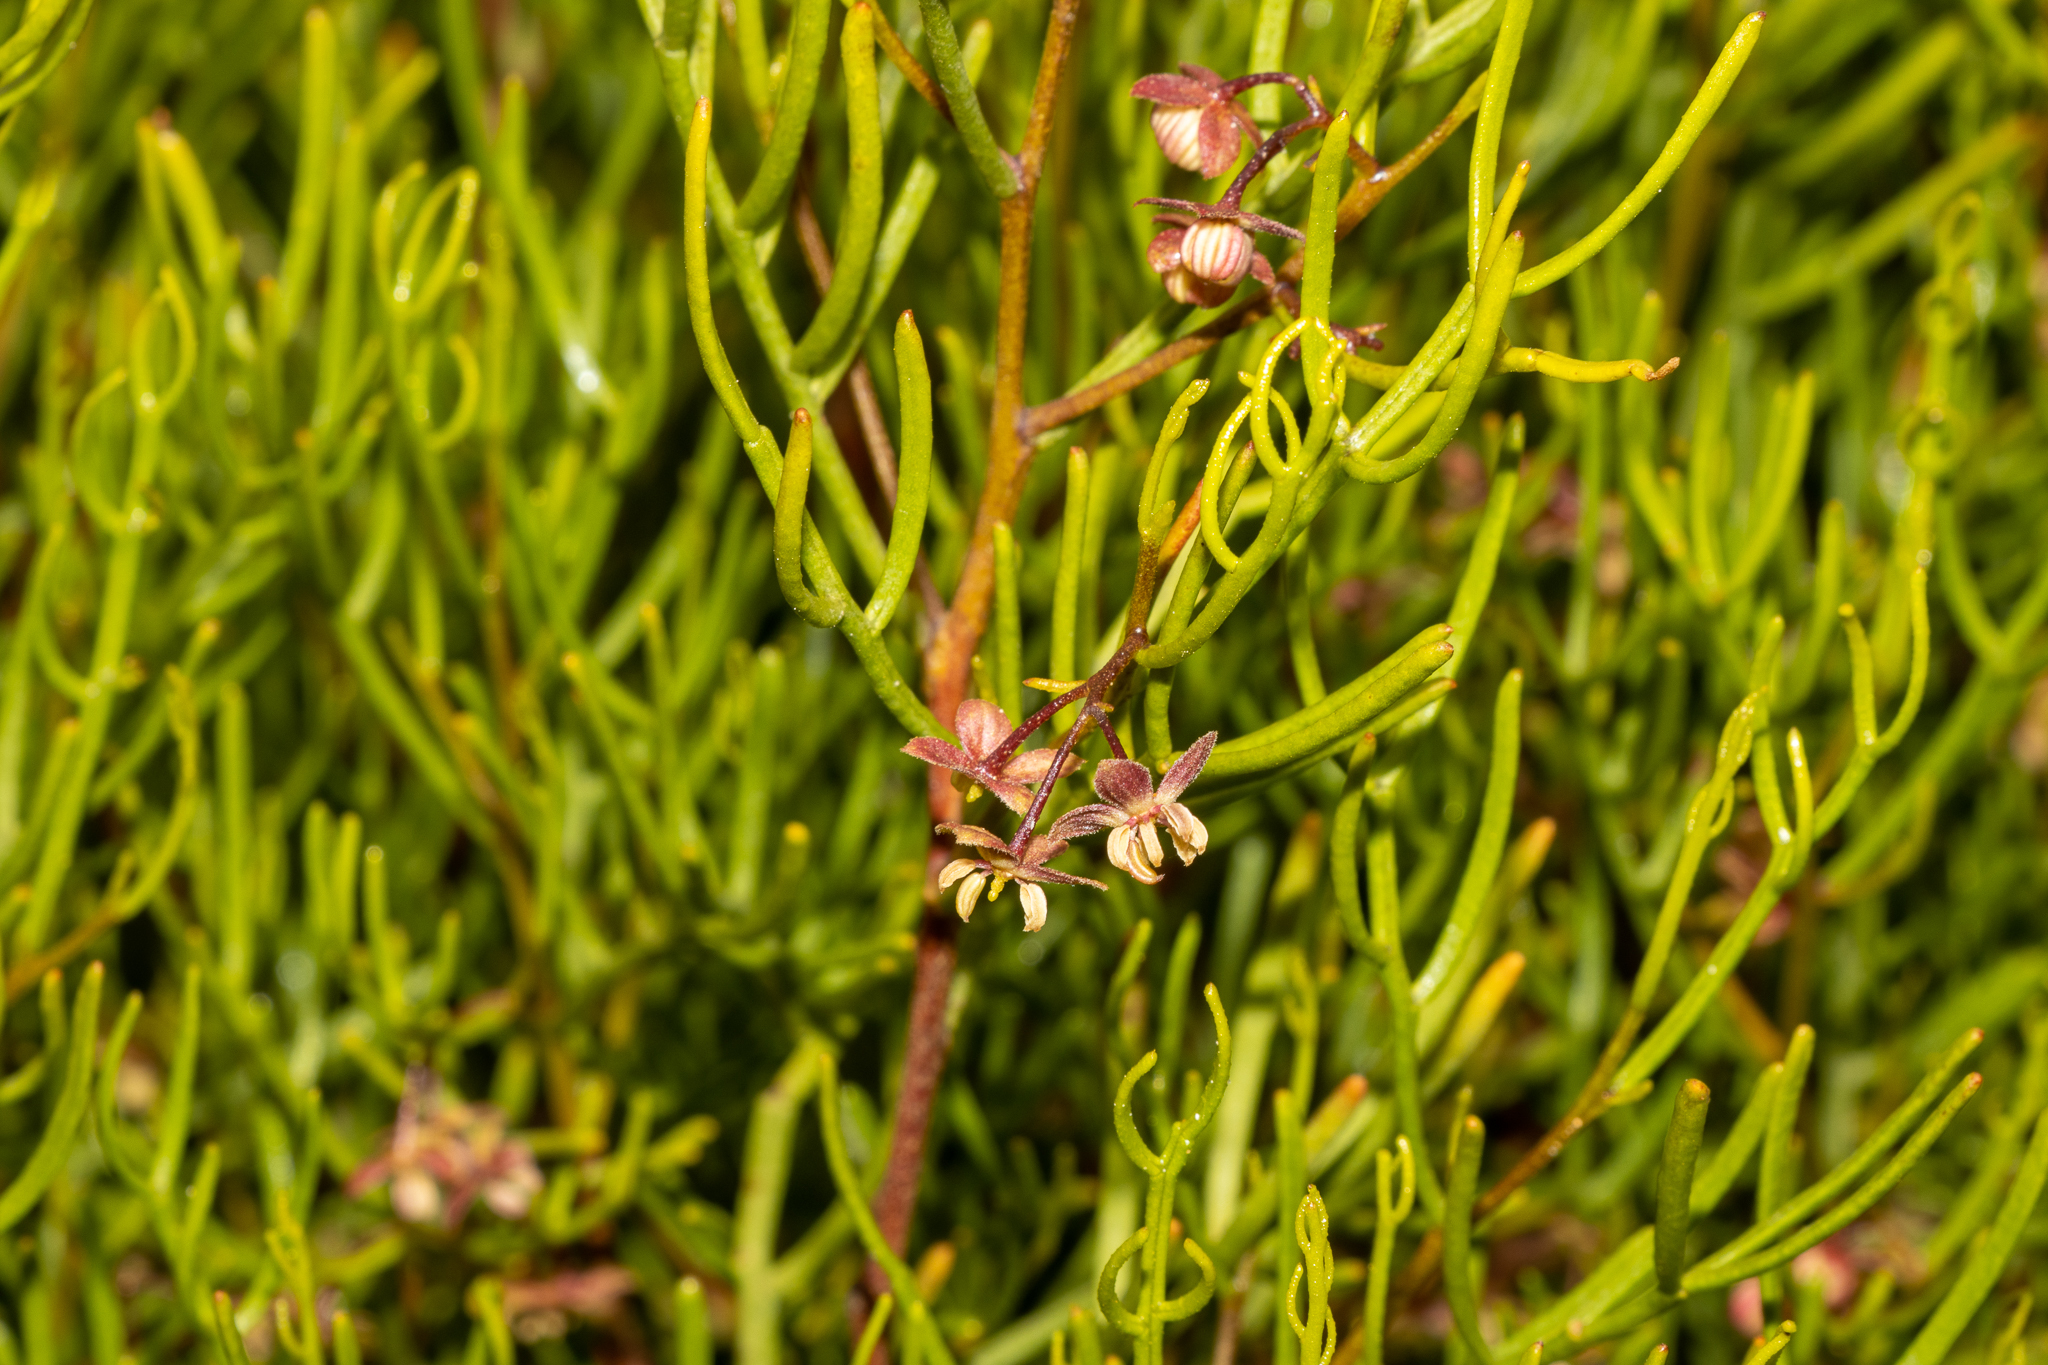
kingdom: Plantae
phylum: Tracheophyta
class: Magnoliopsida
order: Sapindales
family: Sapindaceae
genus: Dodonaea
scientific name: Dodonaea stenozyga
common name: Desert hopbush
